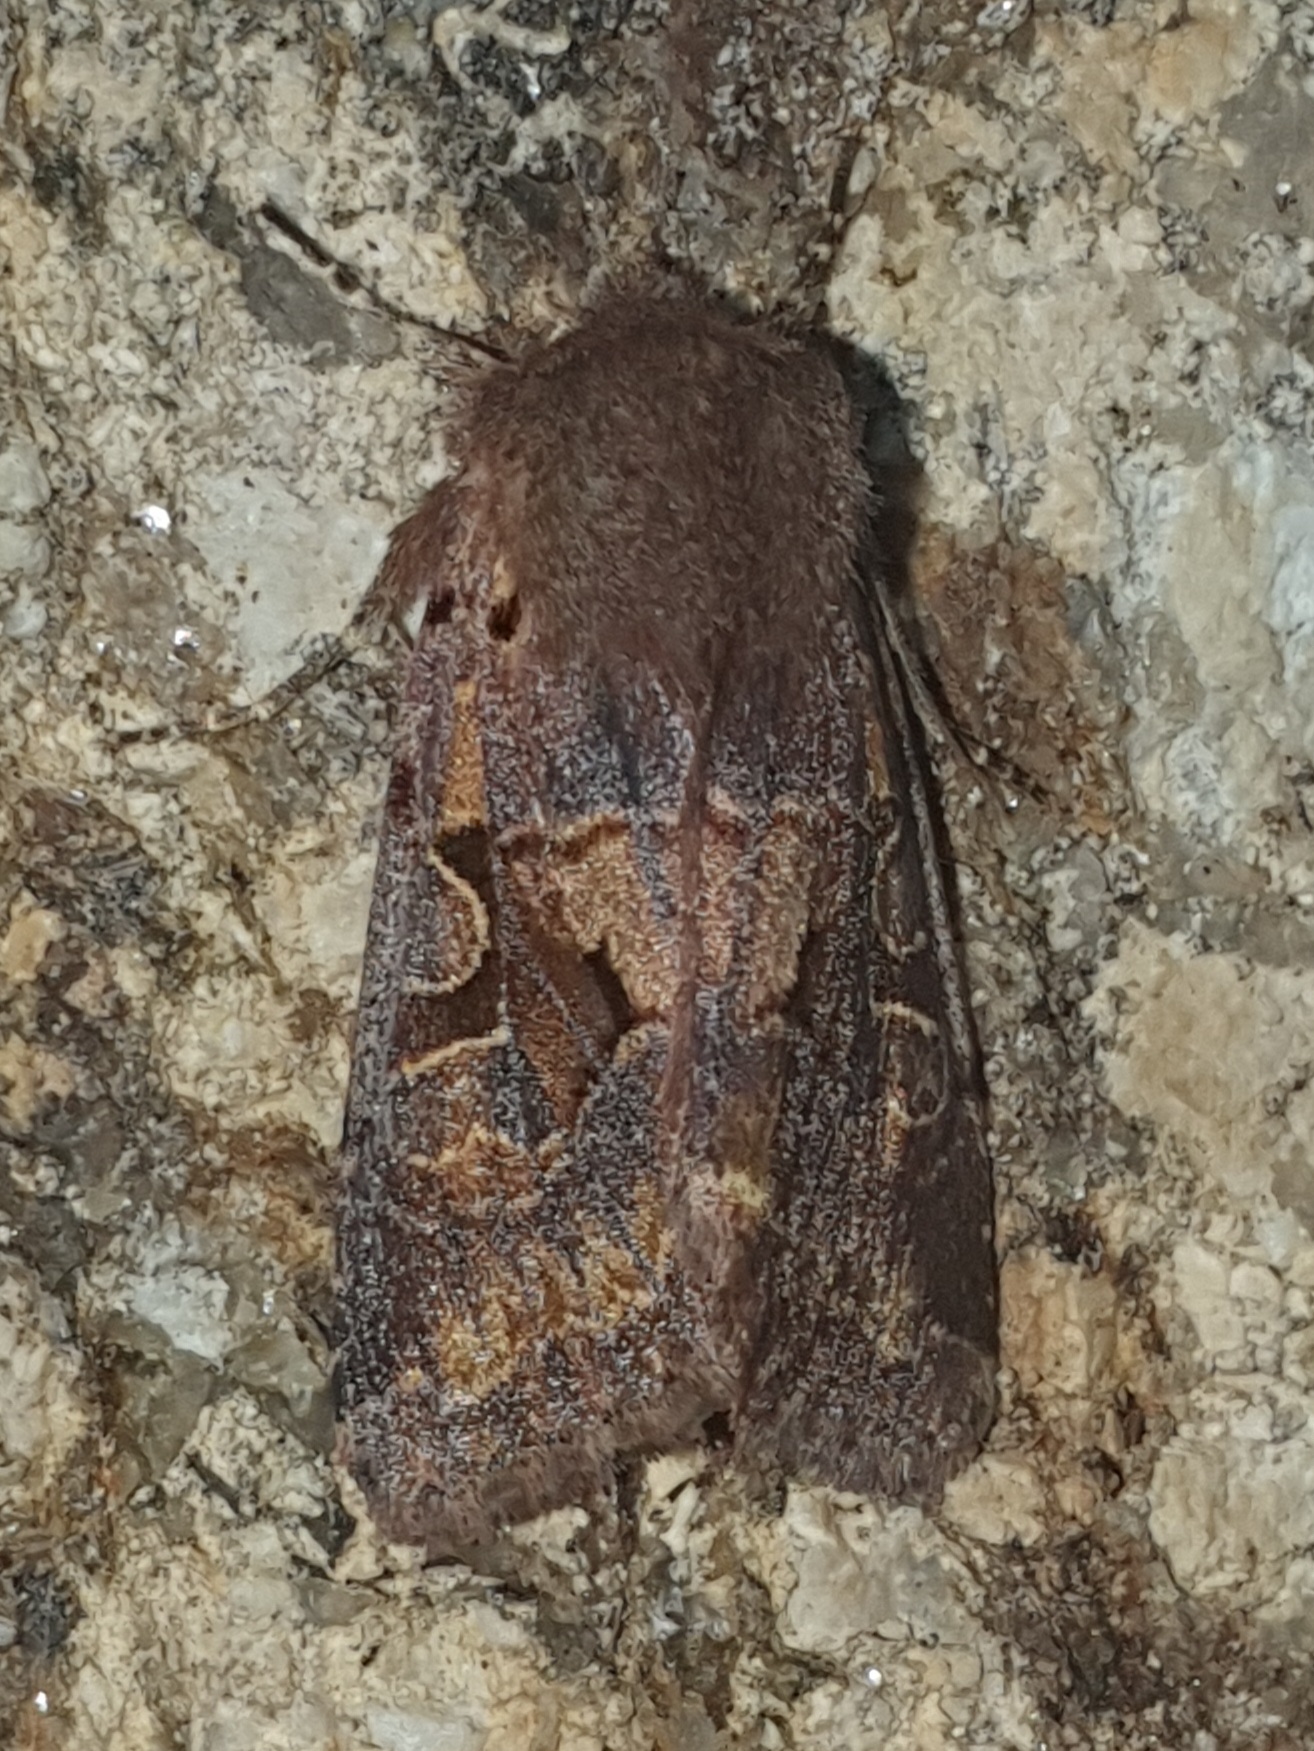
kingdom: Animalia
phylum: Arthropoda
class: Insecta
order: Lepidoptera
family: Noctuidae
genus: Orthosia
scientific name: Orthosia gothica
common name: Hebrew character
